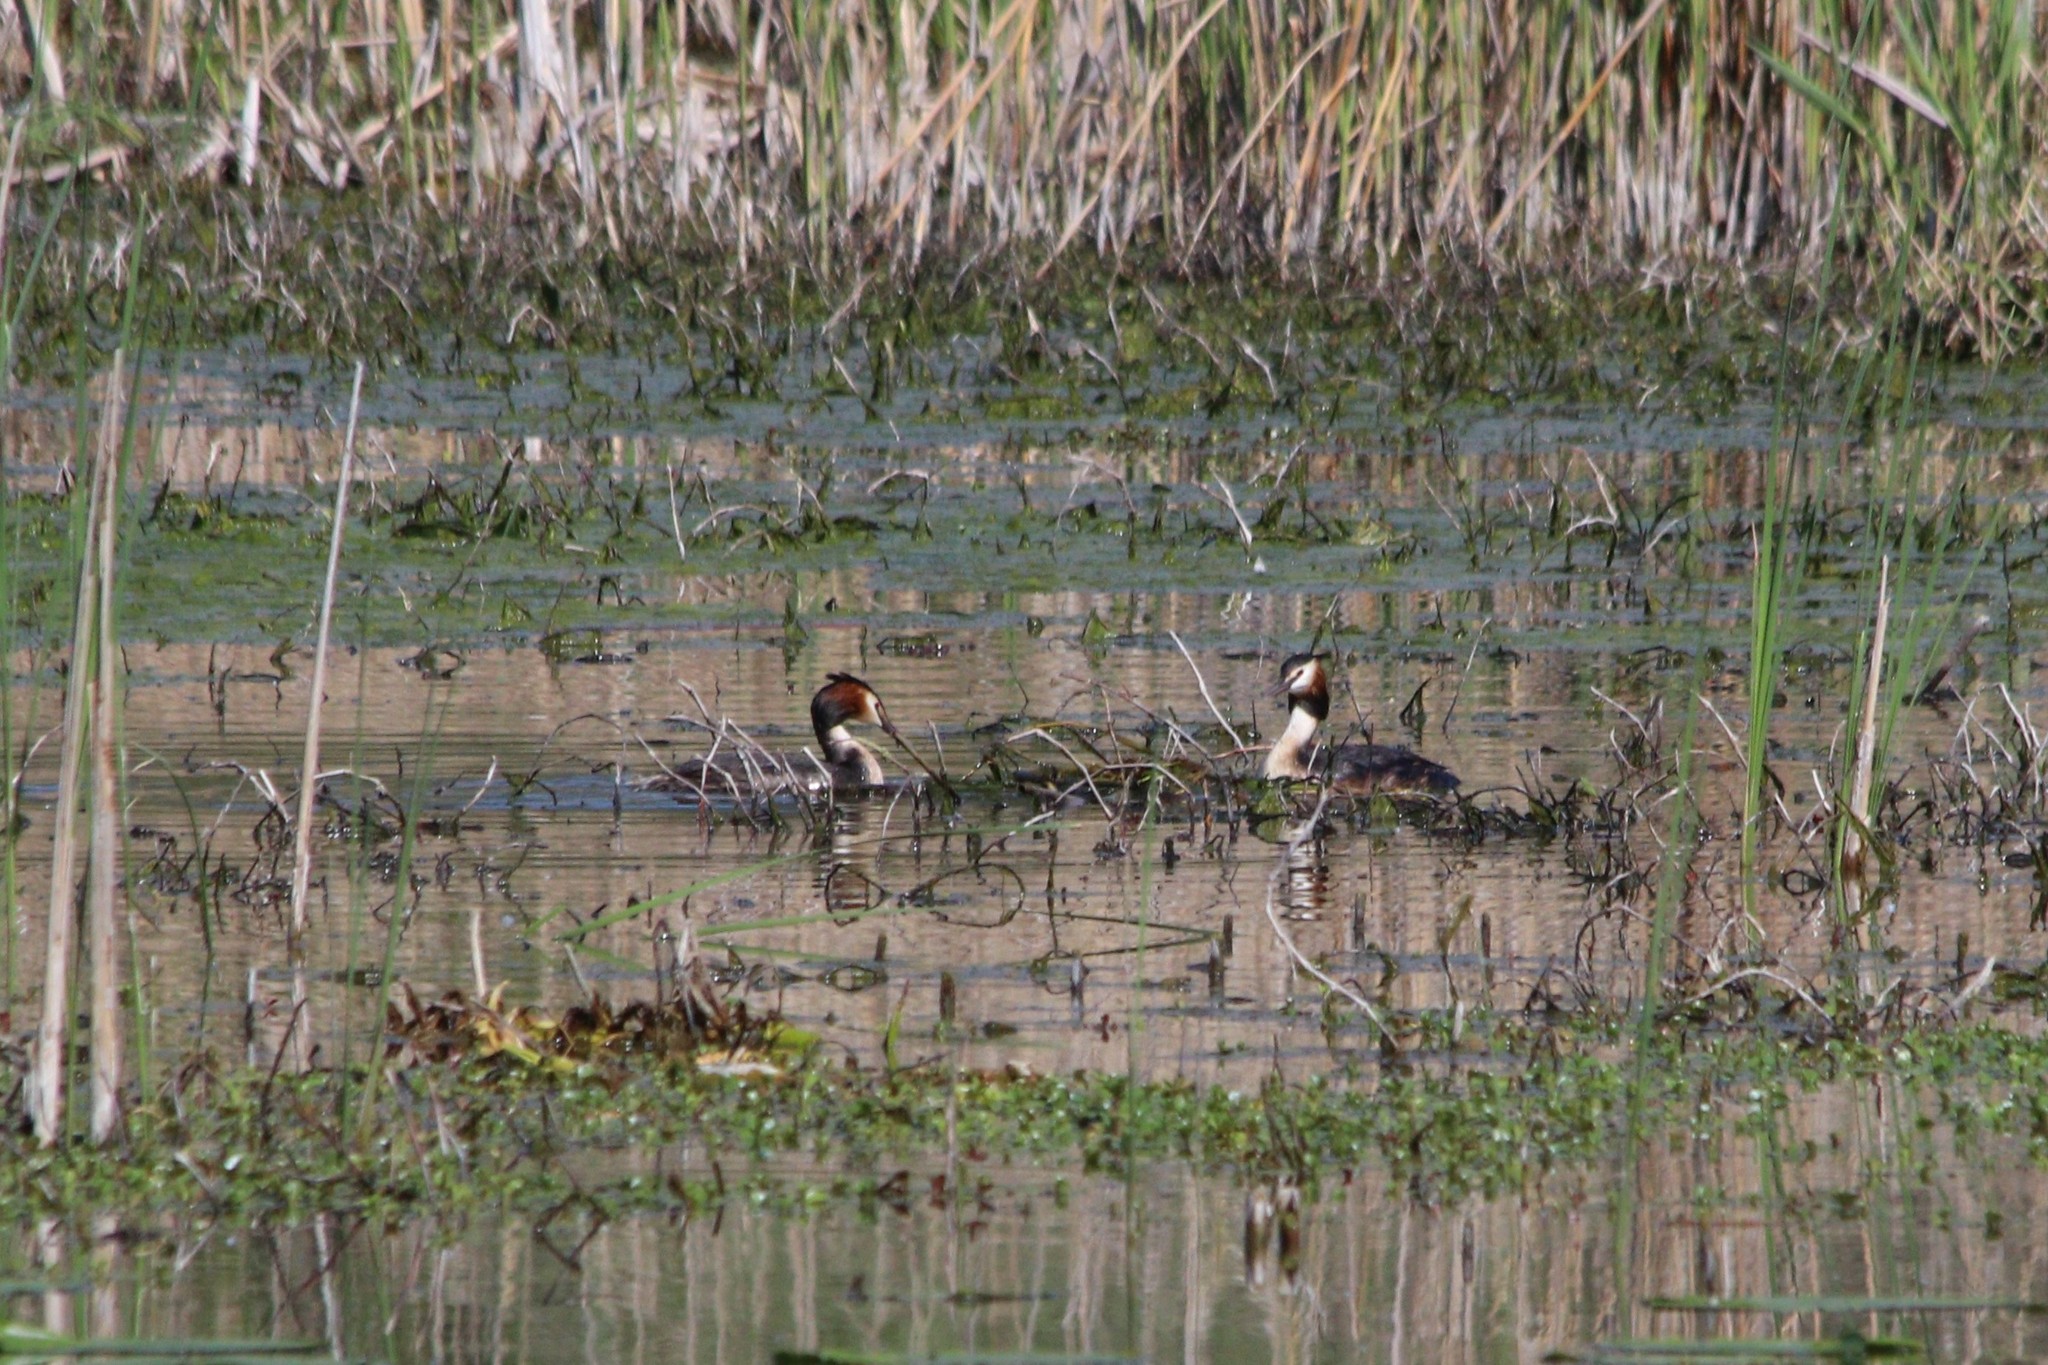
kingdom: Animalia
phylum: Chordata
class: Aves
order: Podicipediformes
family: Podicipedidae
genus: Podiceps
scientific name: Podiceps cristatus
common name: Great crested grebe
